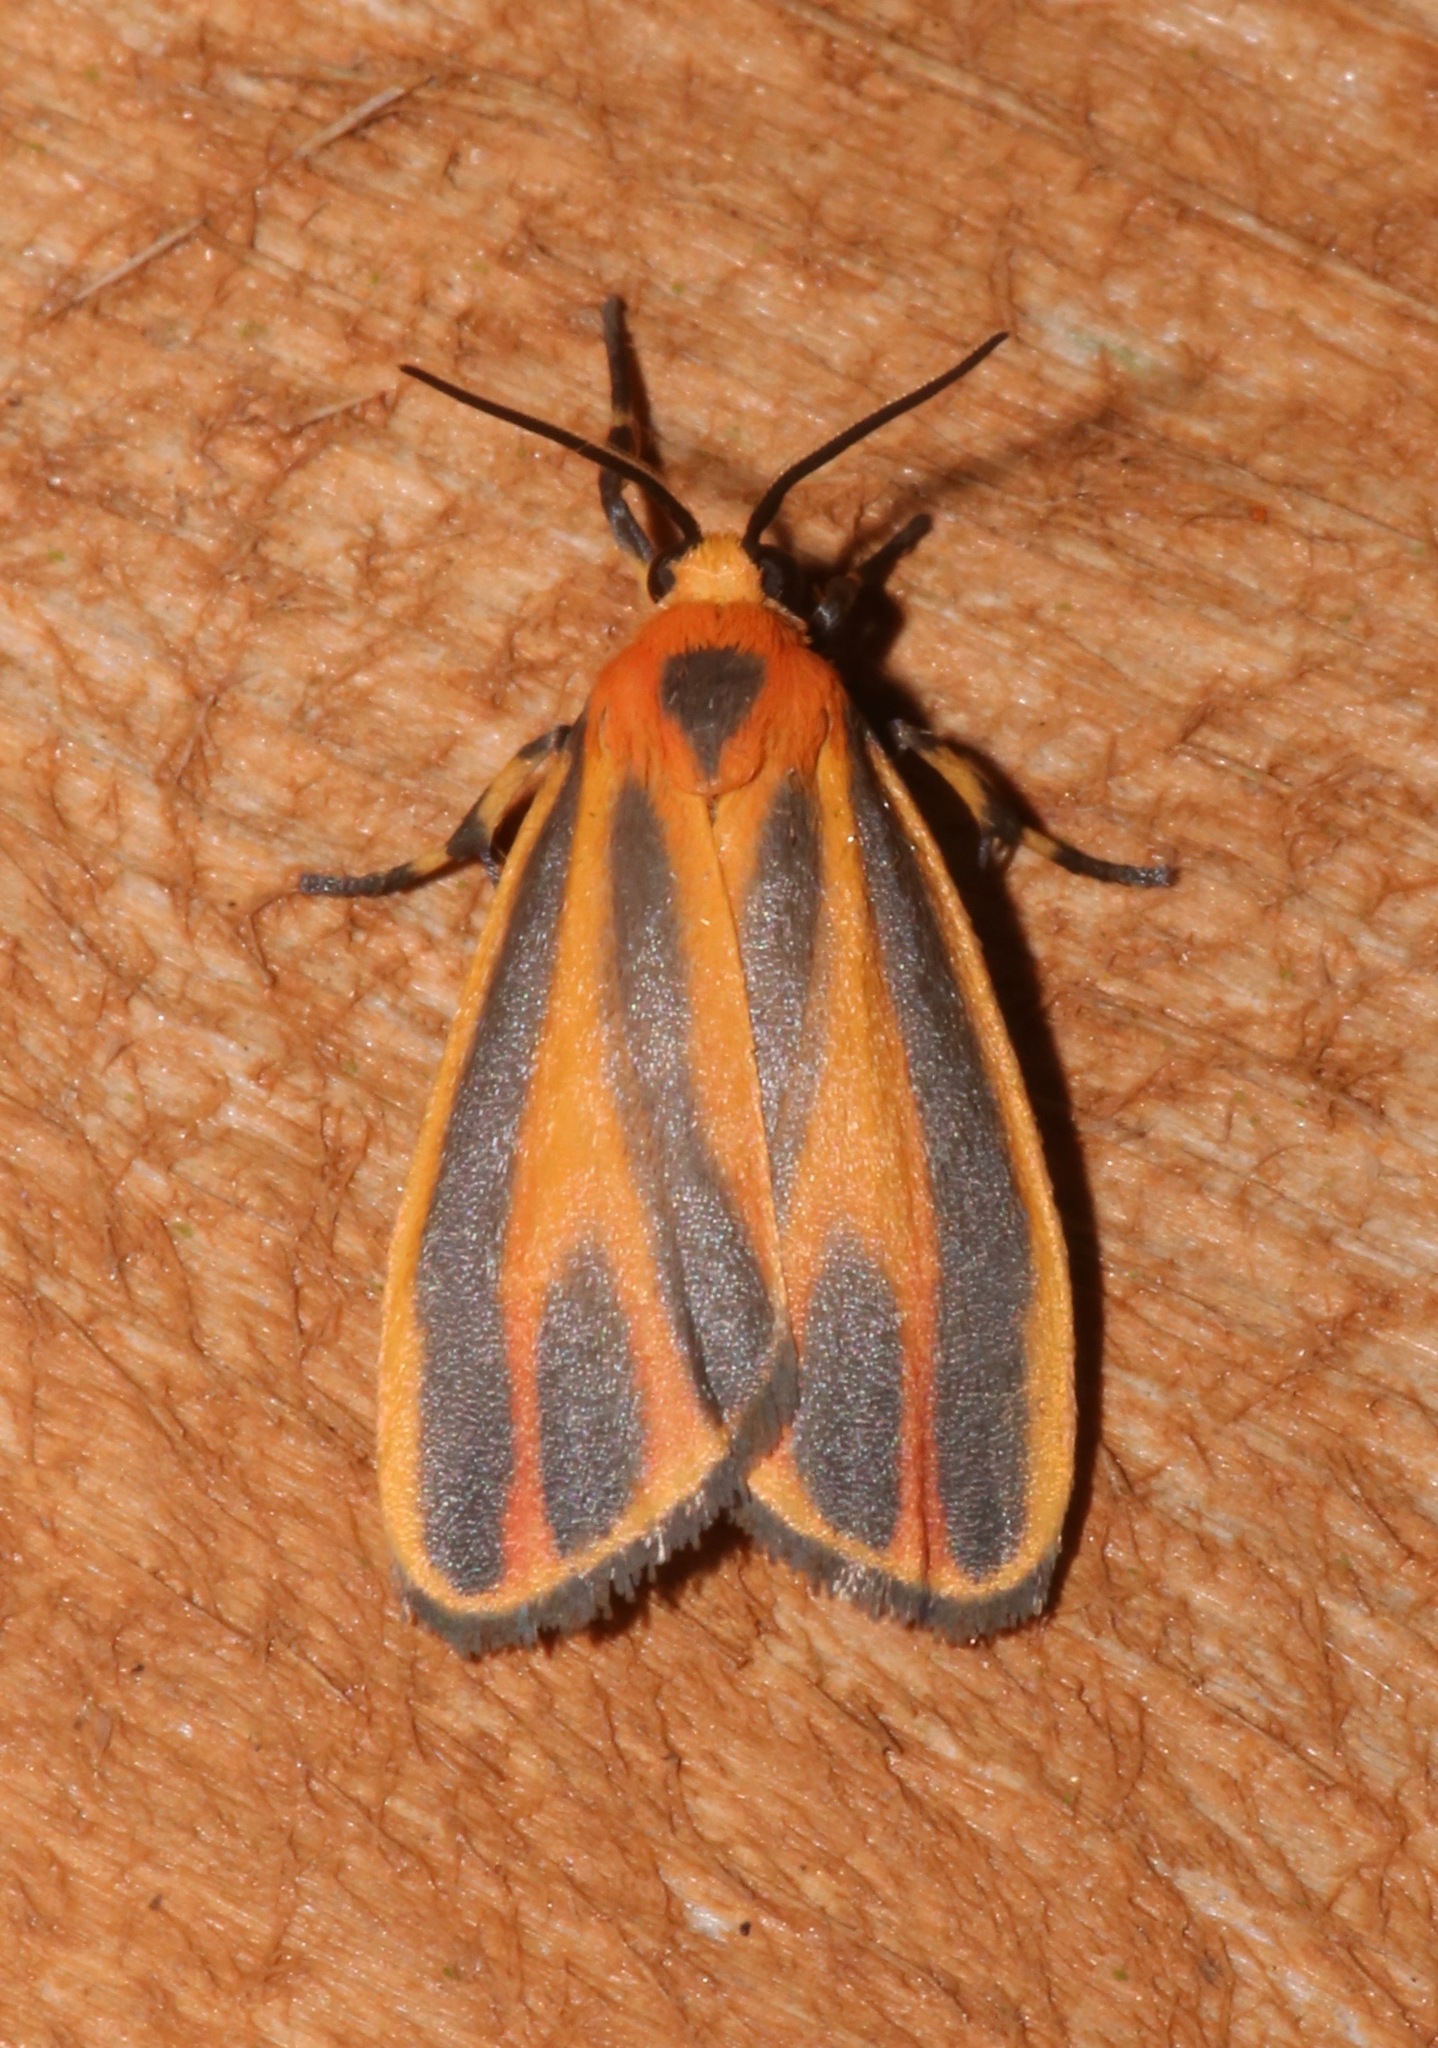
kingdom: Animalia
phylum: Arthropoda
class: Insecta
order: Lepidoptera
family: Erebidae
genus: Hypoprepia
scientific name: Hypoprepia fucosa
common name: Painted lichen moth
